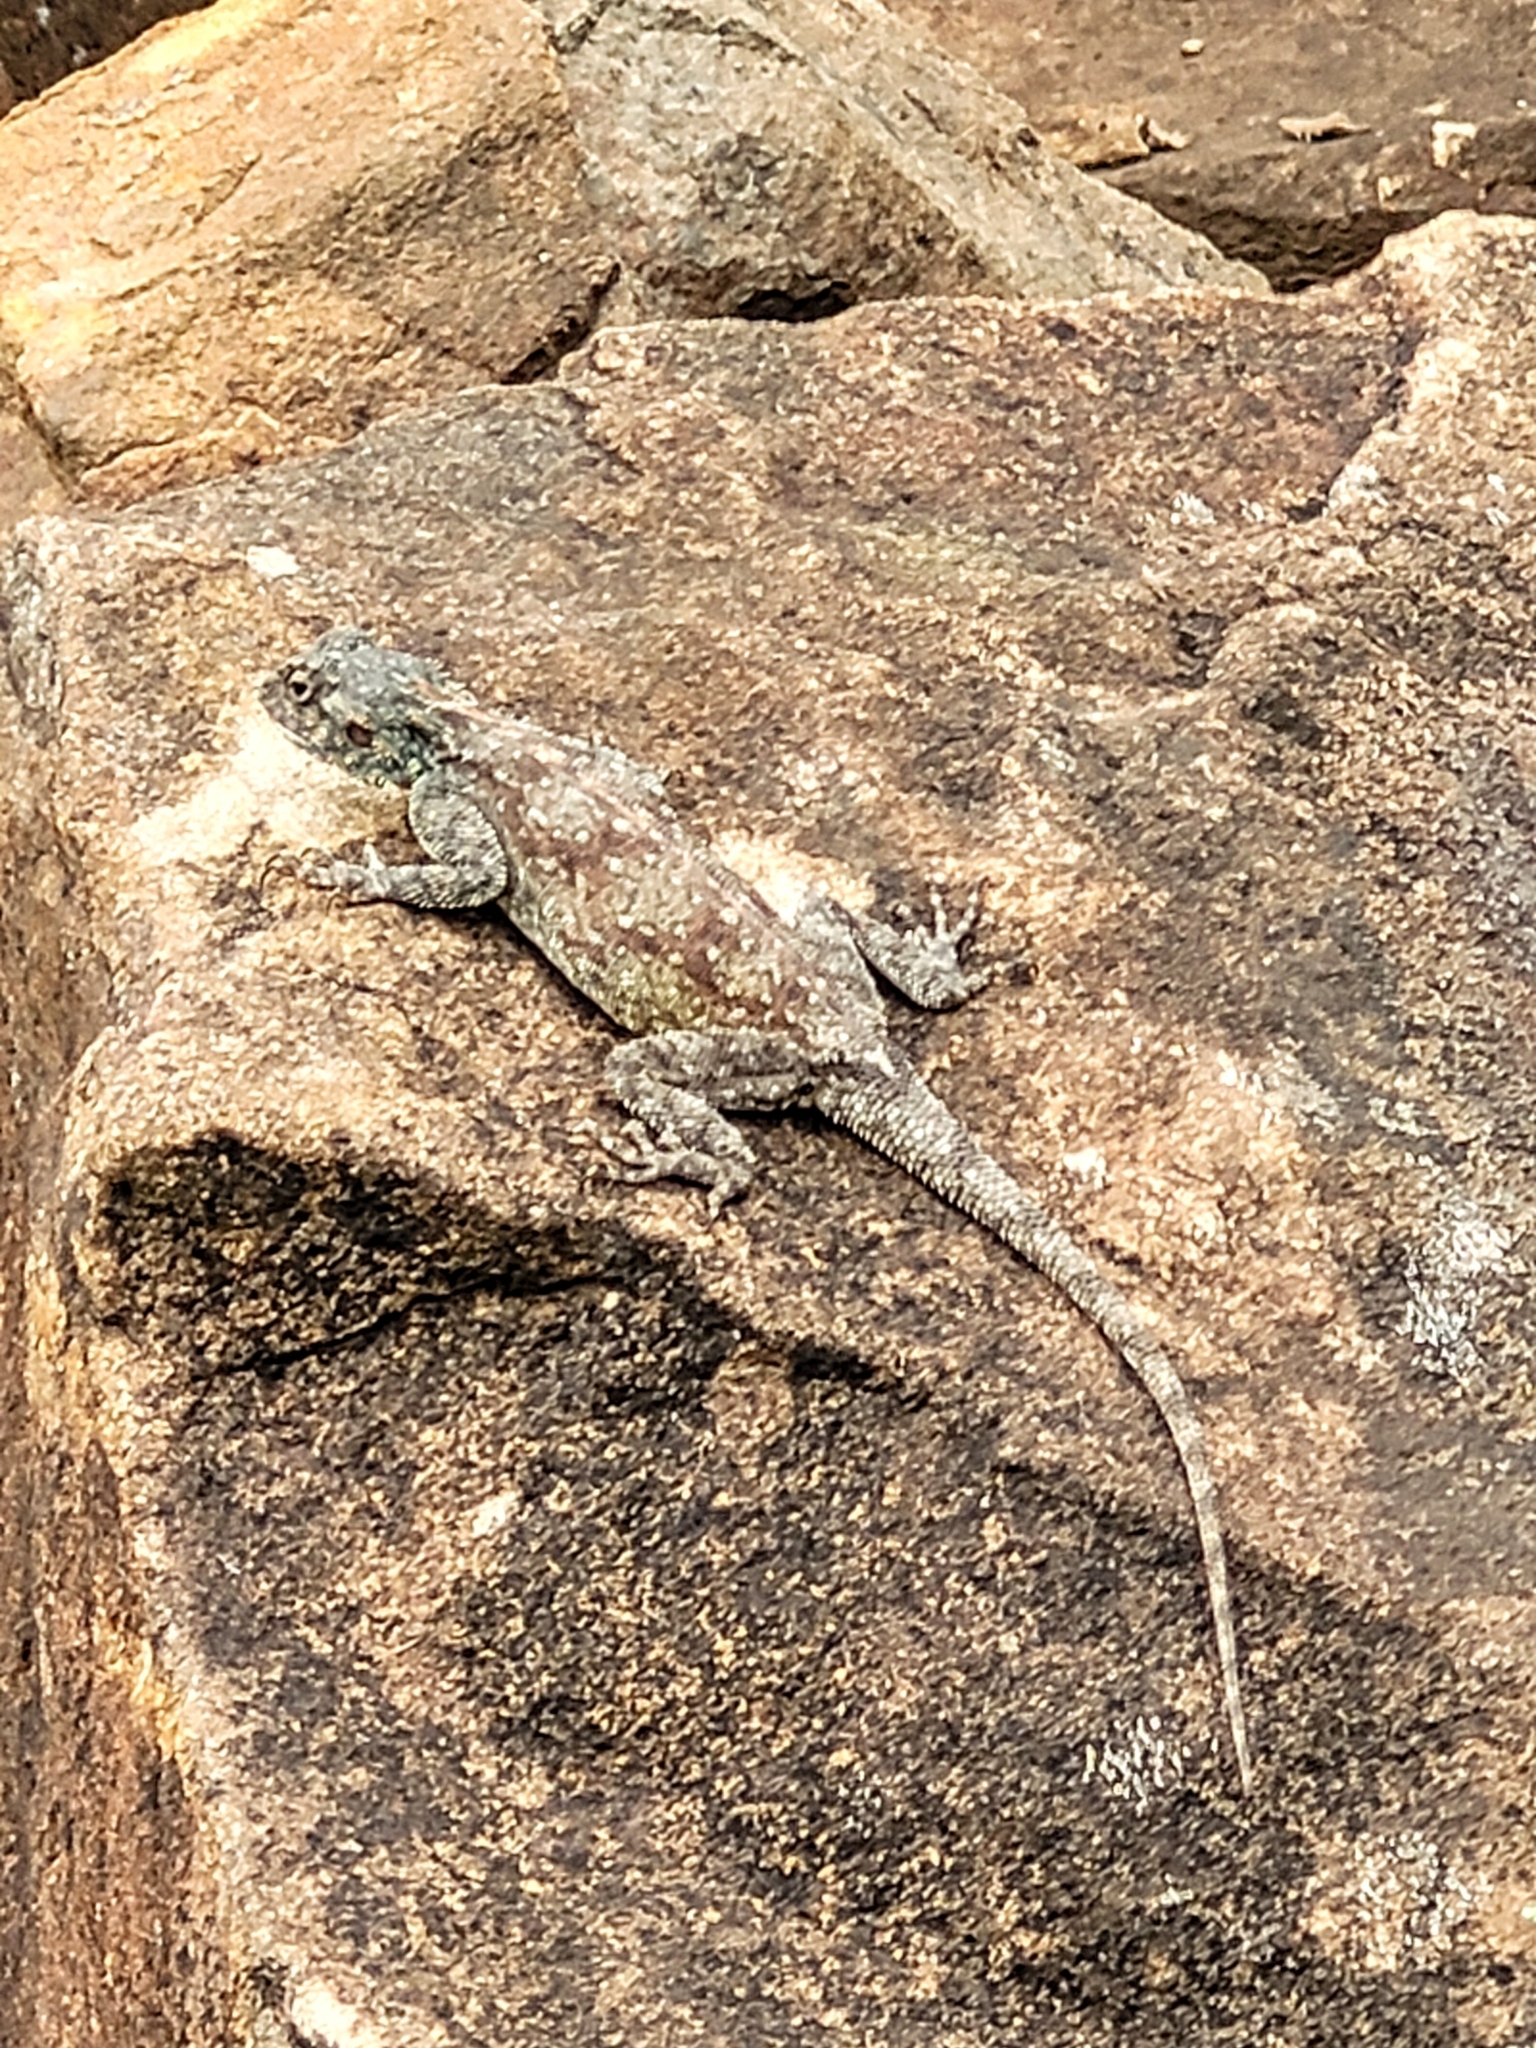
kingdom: Animalia
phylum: Chordata
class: Squamata
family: Agamidae
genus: Agama
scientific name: Agama atra
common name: Southern african rock agama
